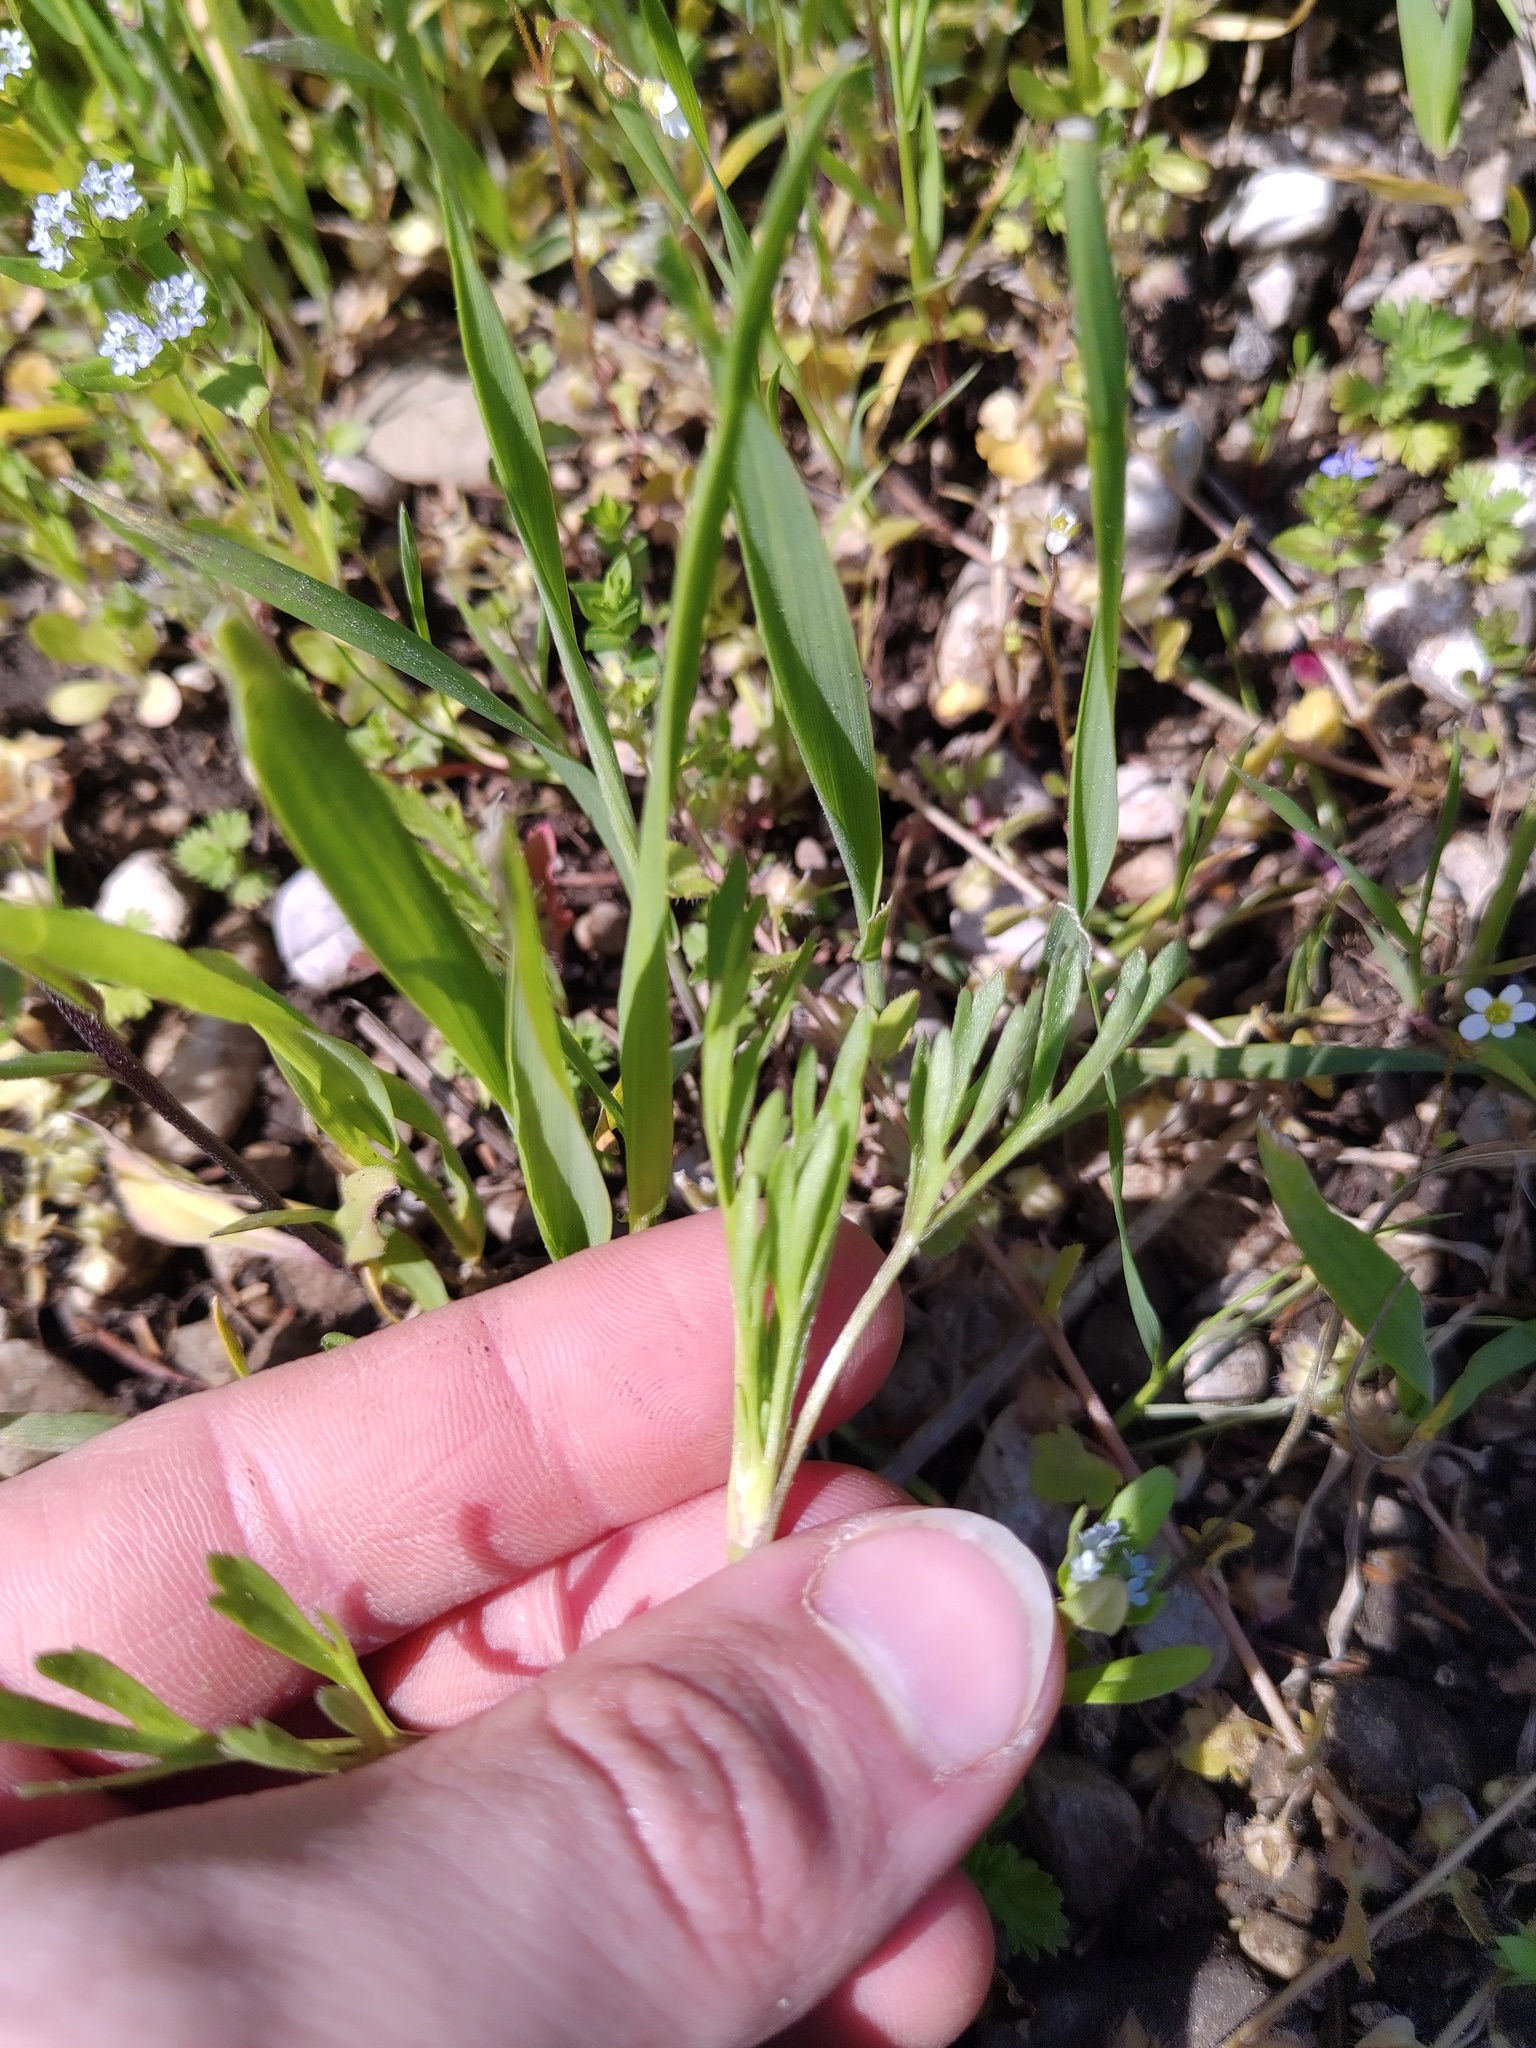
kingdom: Plantae
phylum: Tracheophyta
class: Magnoliopsida
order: Ranunculales
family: Ranunculaceae
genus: Ranunculus
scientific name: Ranunculus arvensis
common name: Corn buttercup
